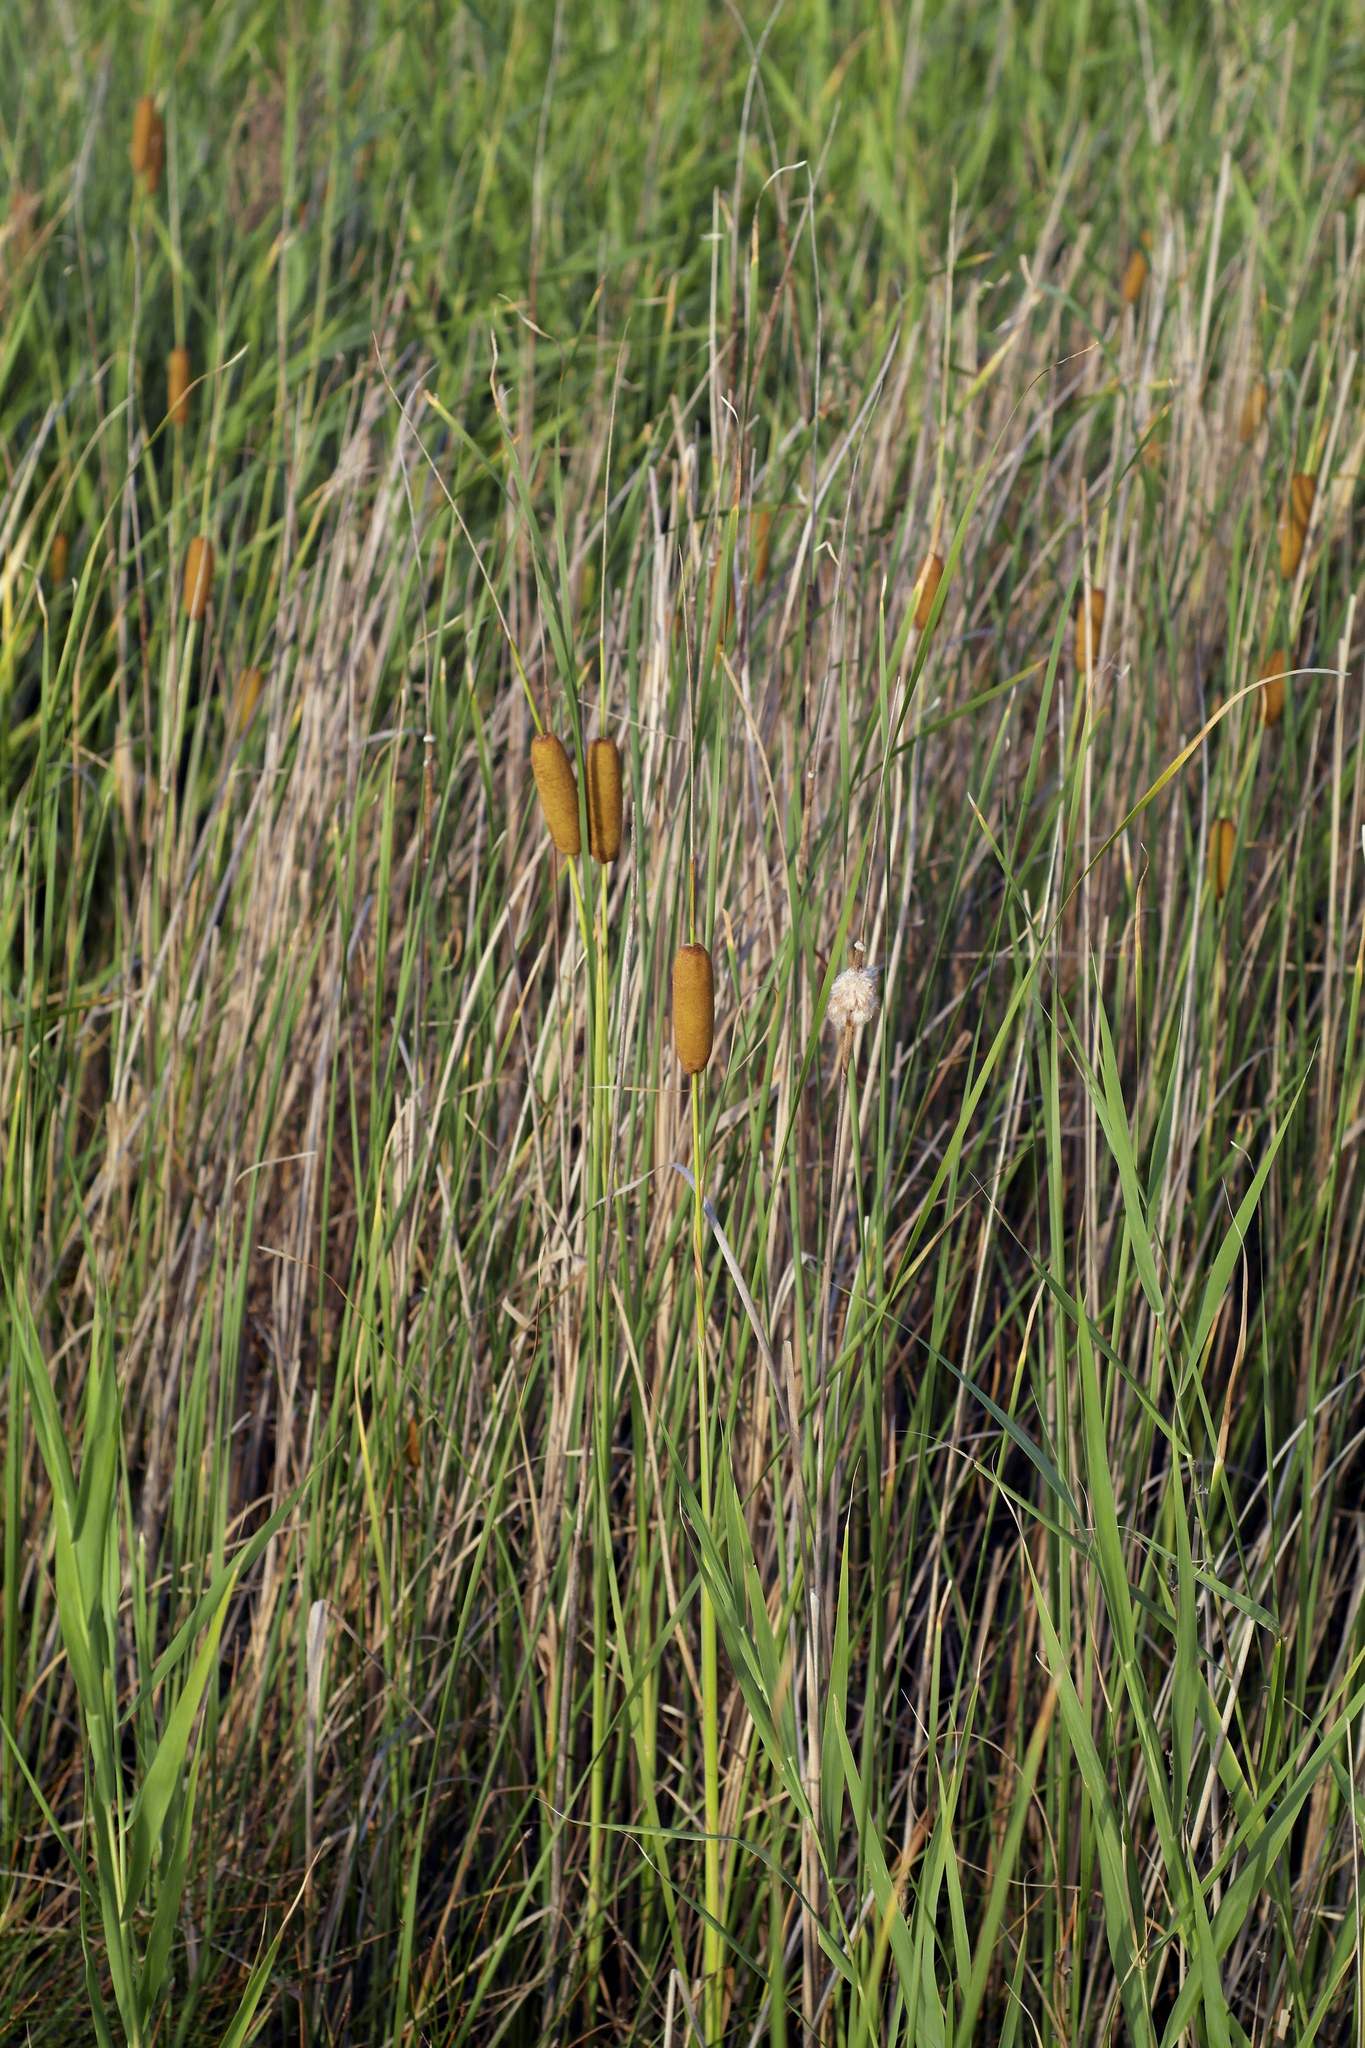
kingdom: Plantae
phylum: Tracheophyta
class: Liliopsida
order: Poales
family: Typhaceae
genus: Typha
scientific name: Typha laxmannii
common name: Laxman’s bulrush
